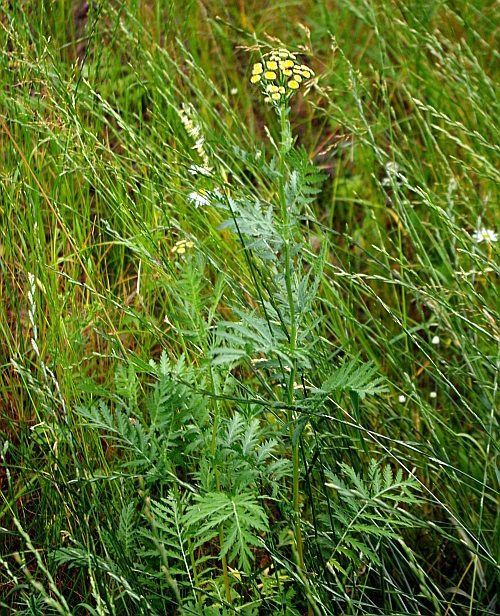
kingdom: Plantae
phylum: Tracheophyta
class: Magnoliopsida
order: Asterales
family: Asteraceae
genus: Tanacetum
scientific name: Tanacetum vulgare
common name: Common tansy
